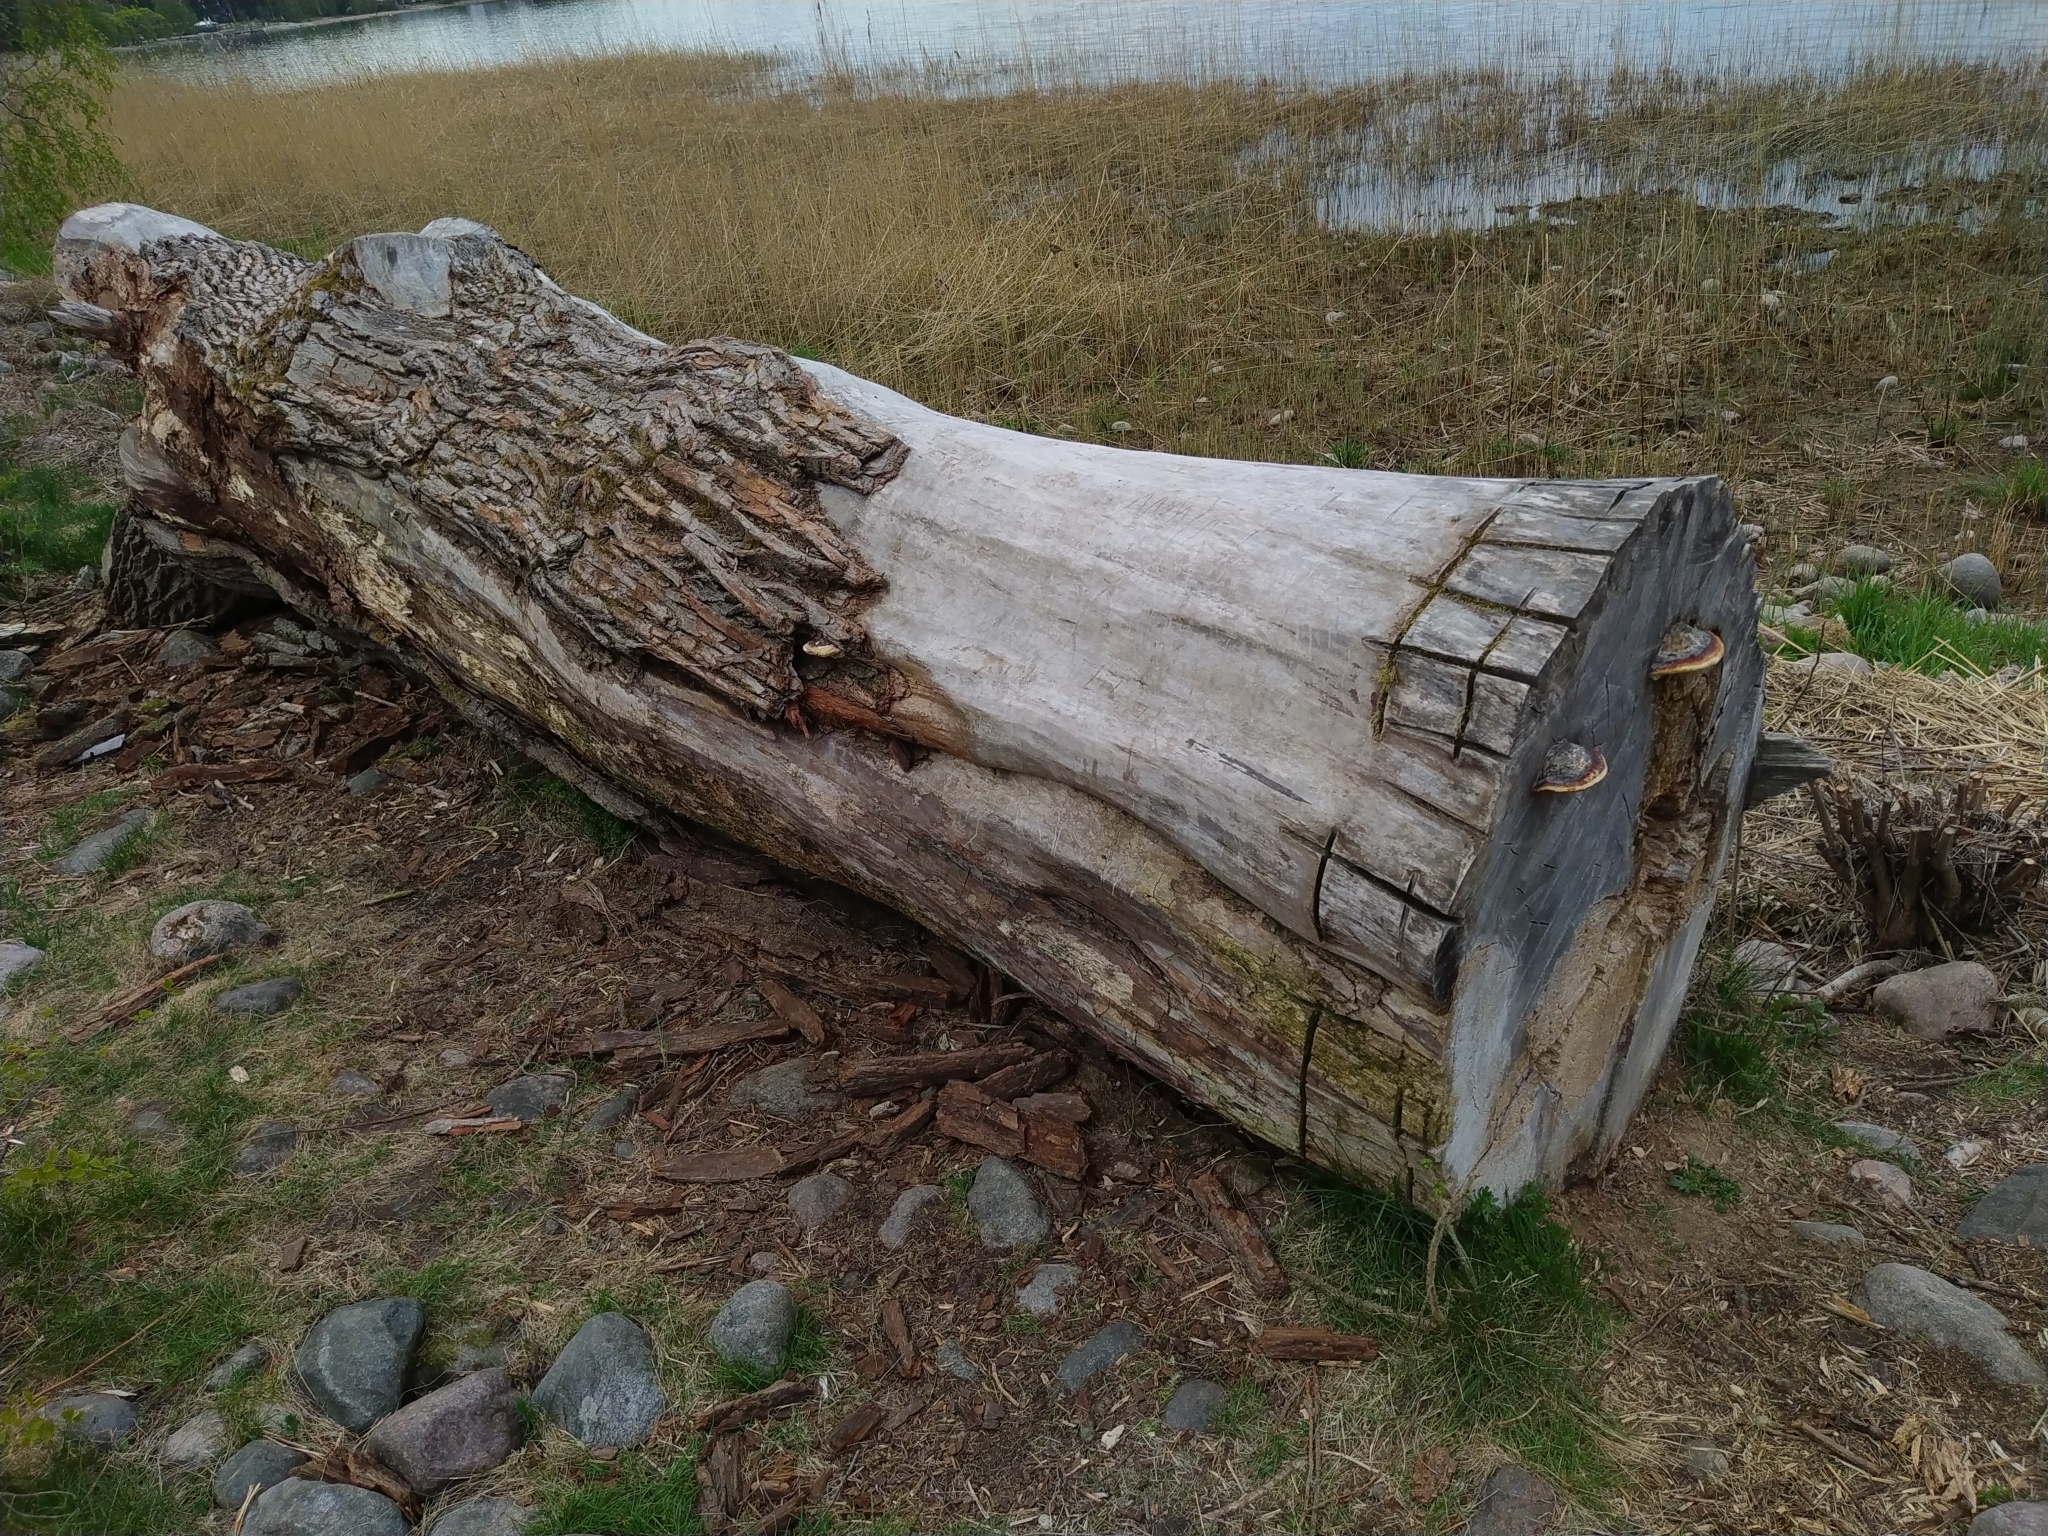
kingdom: Fungi
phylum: Basidiomycota
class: Agaricomycetes
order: Polyporales
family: Fomitopsidaceae
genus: Fomitopsis
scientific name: Fomitopsis pinicola
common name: Red-belted bracket
